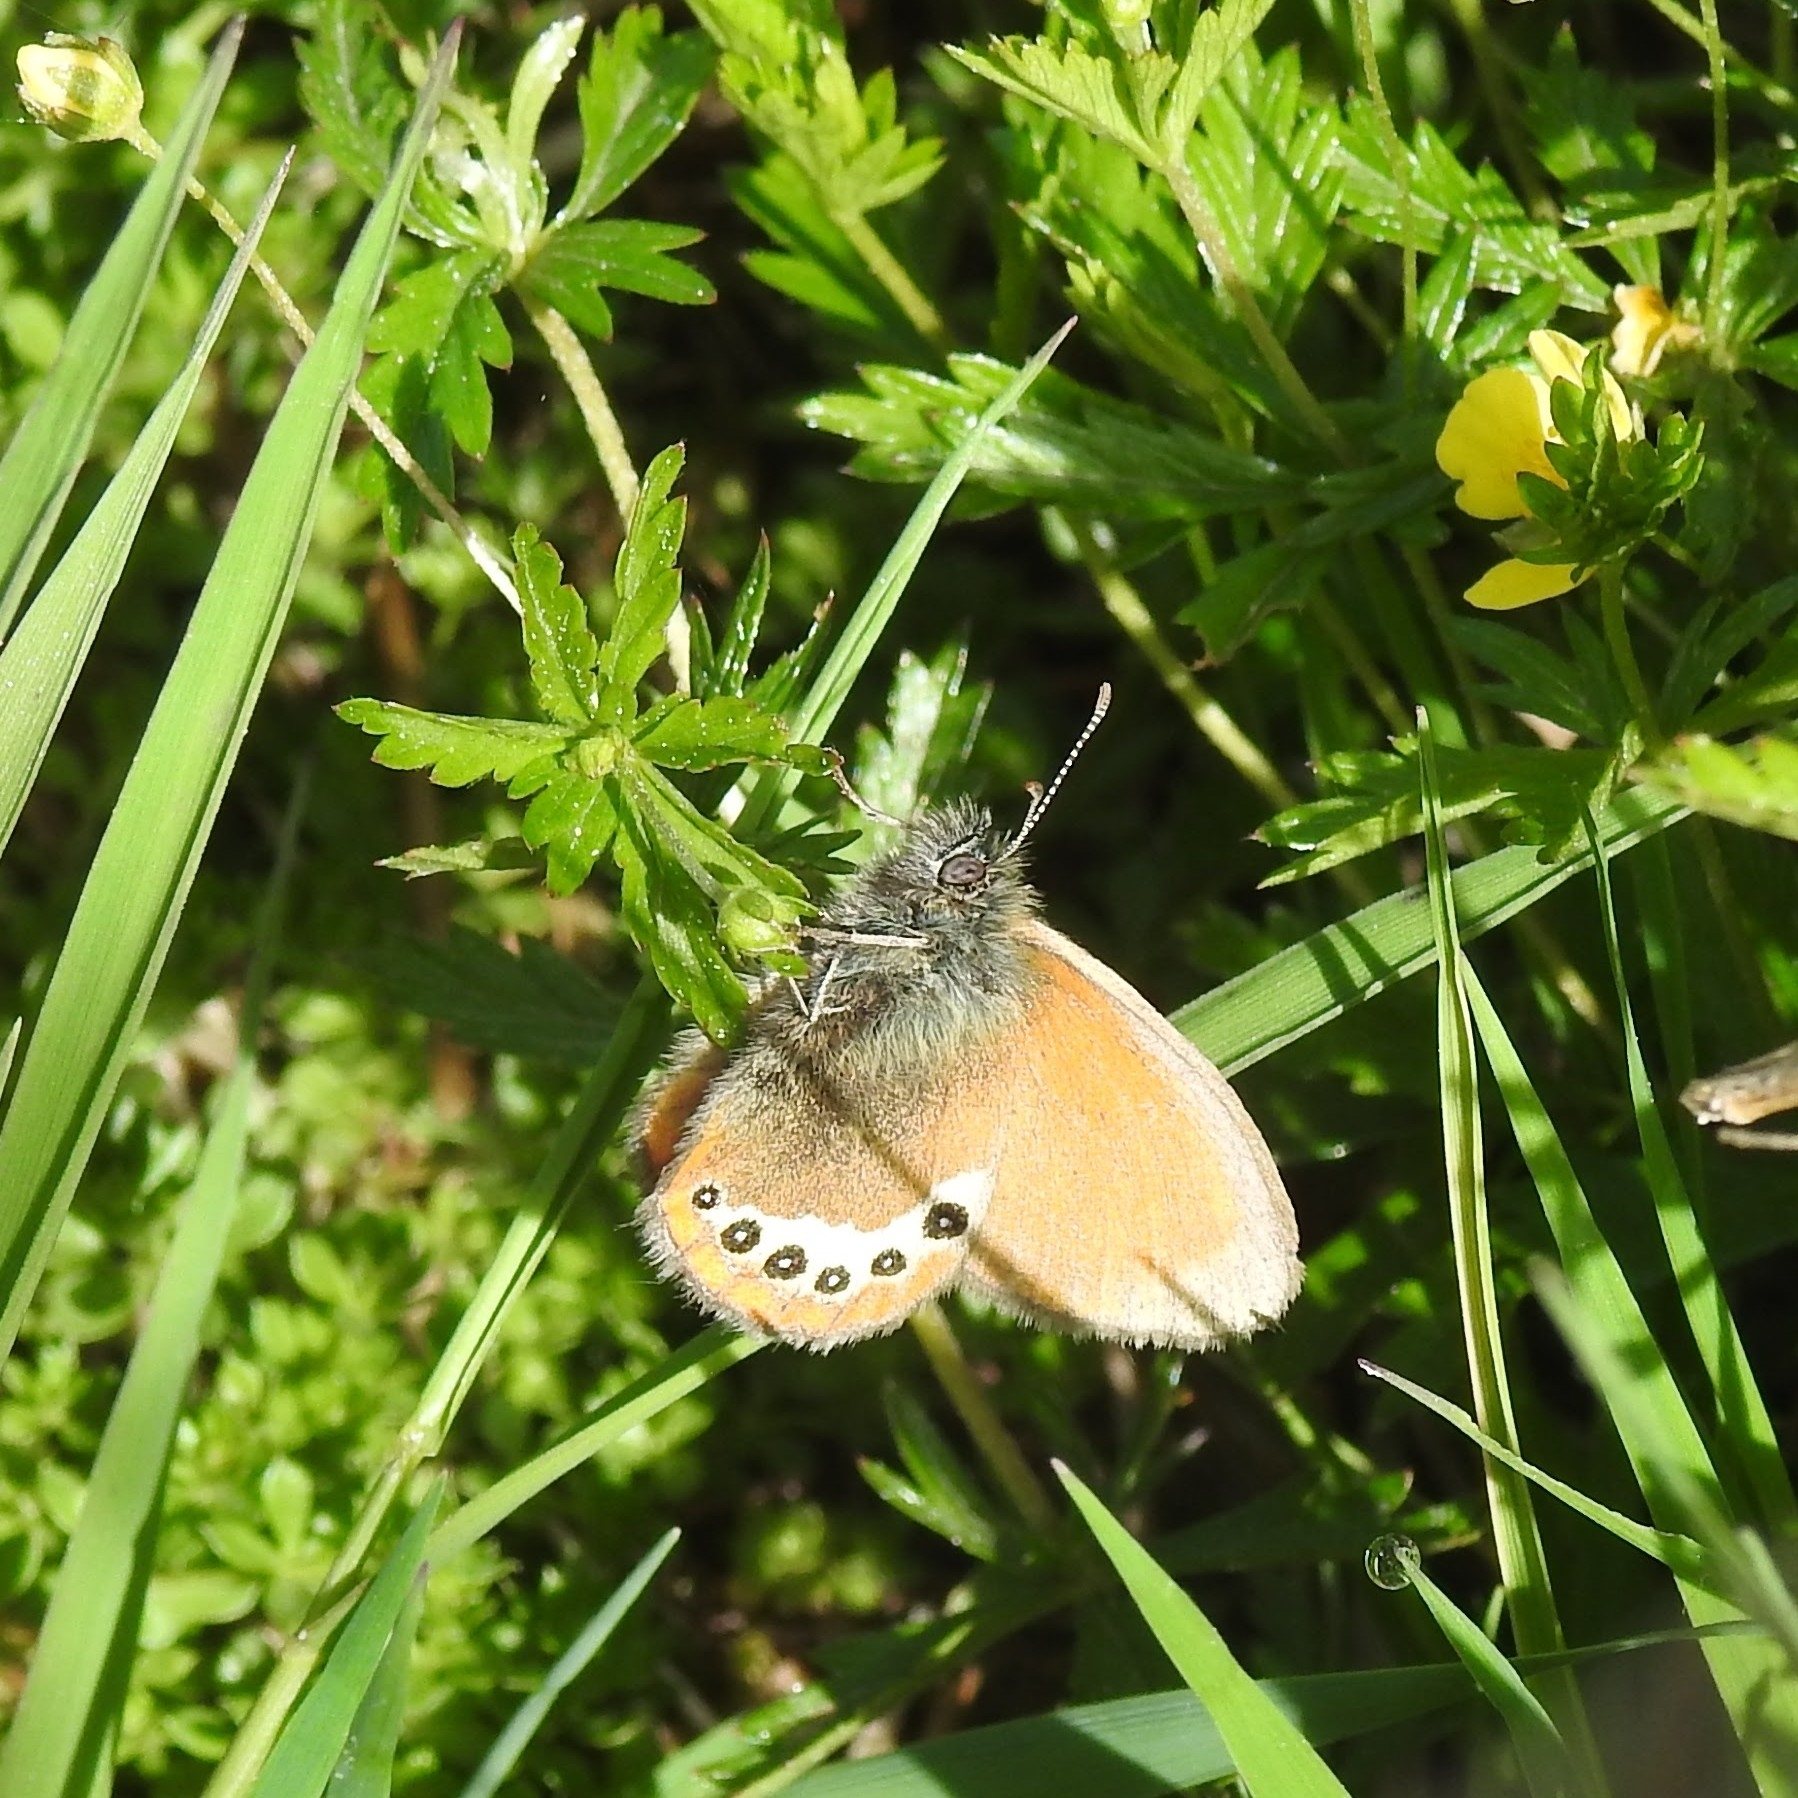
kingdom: Animalia
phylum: Arthropoda
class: Insecta
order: Lepidoptera
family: Nymphalidae
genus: Coenonympha
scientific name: Coenonympha
